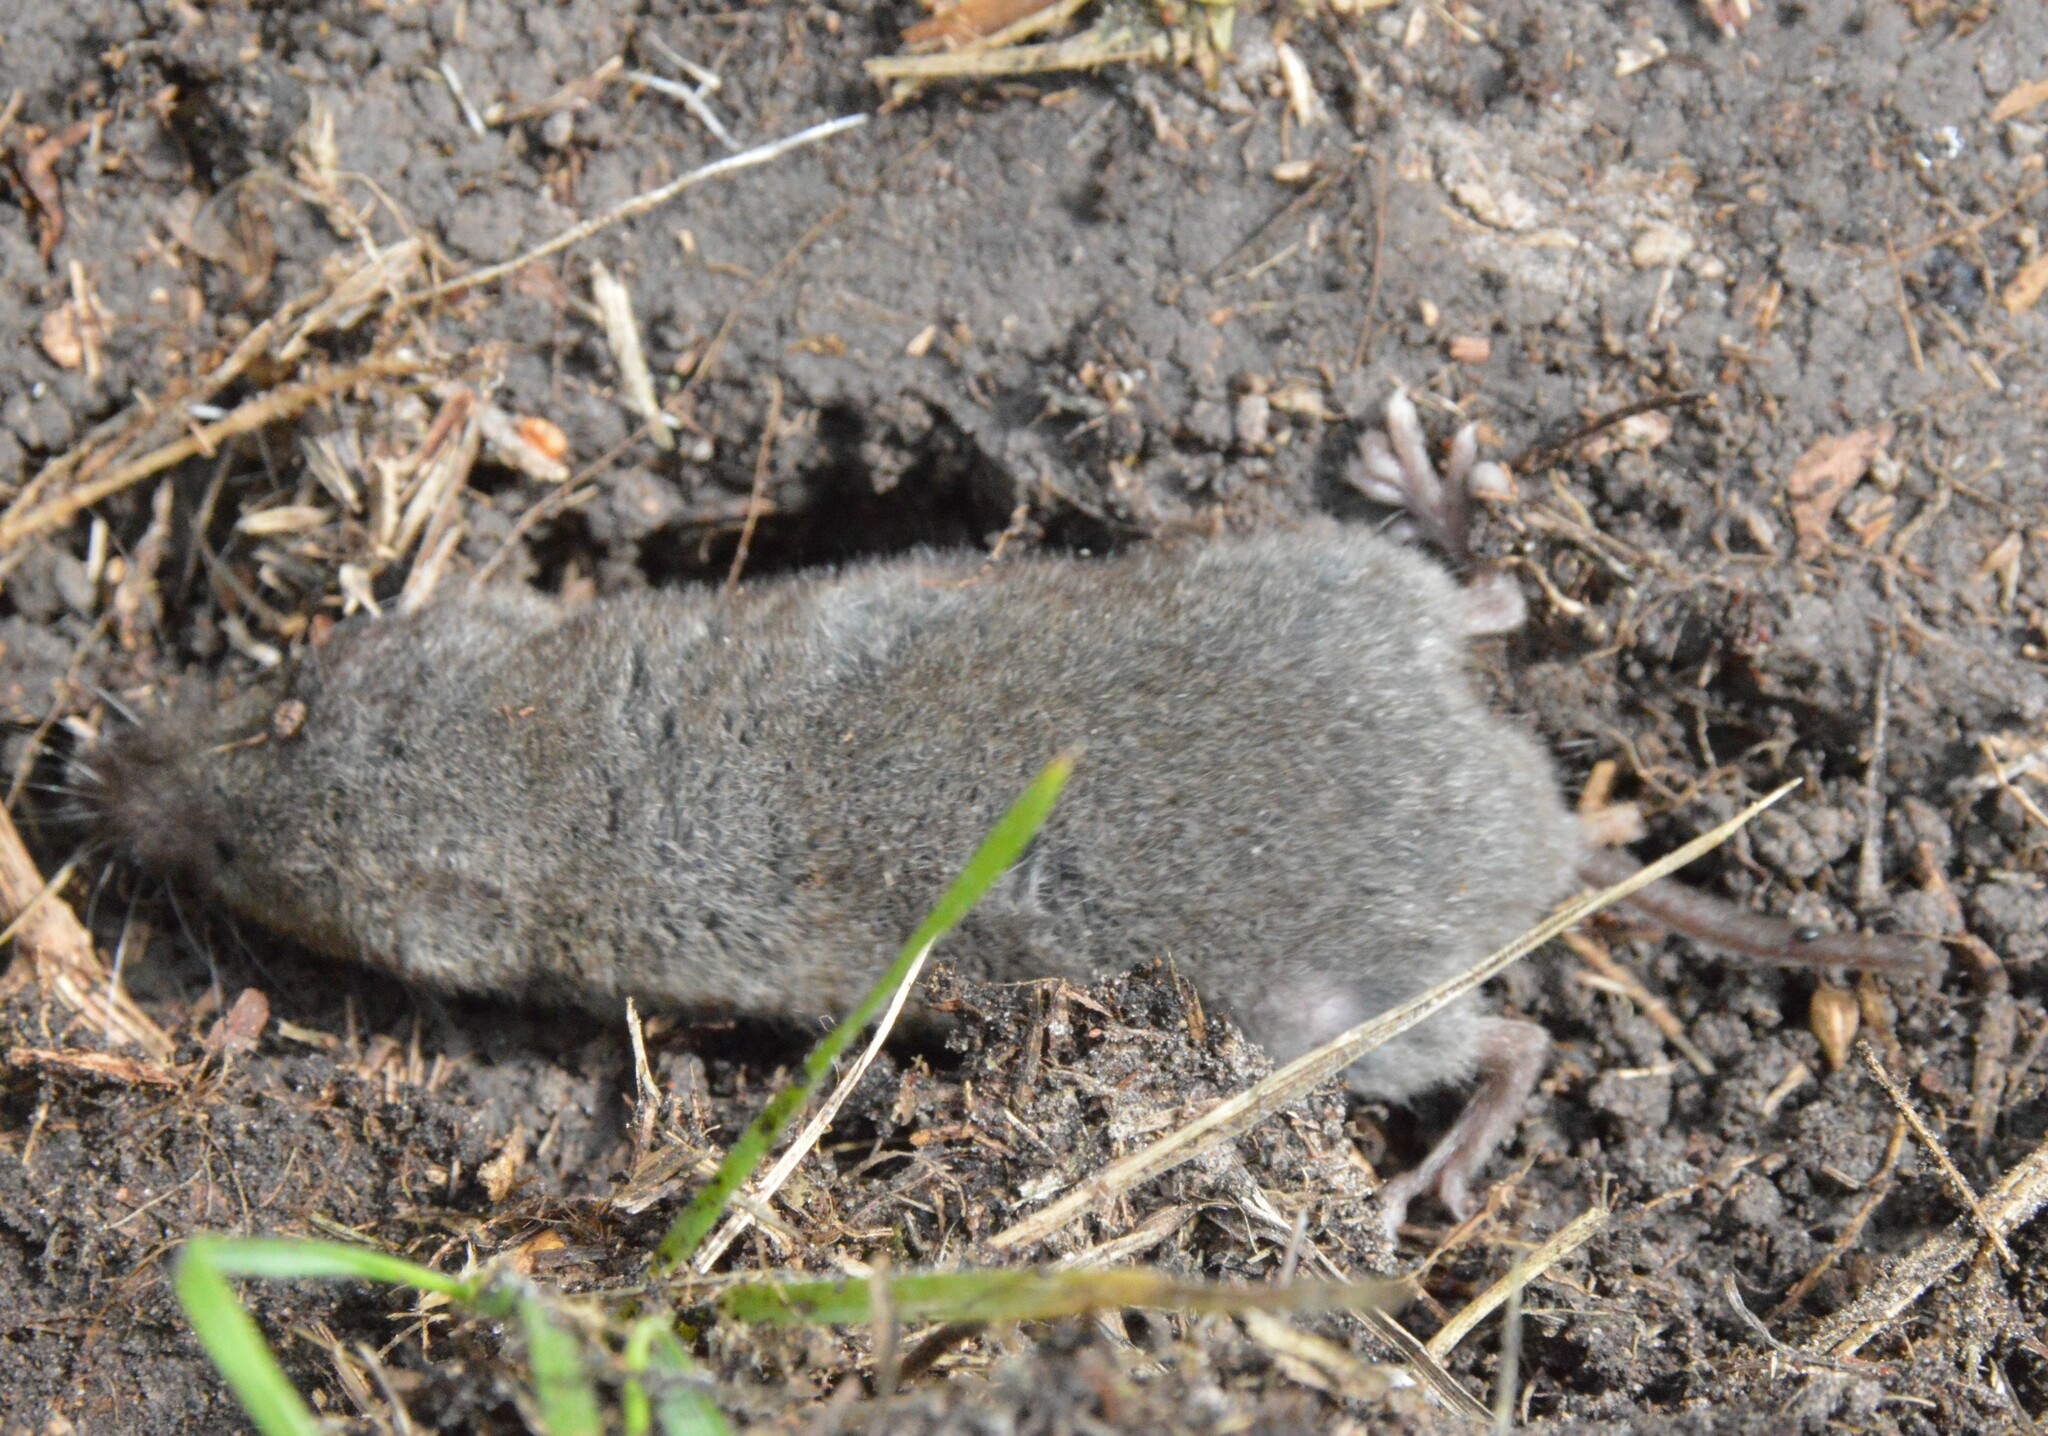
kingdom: Animalia
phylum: Chordata
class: Mammalia
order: Soricomorpha
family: Soricidae
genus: Cryptotis
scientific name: Cryptotis parva
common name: North american least shrew
